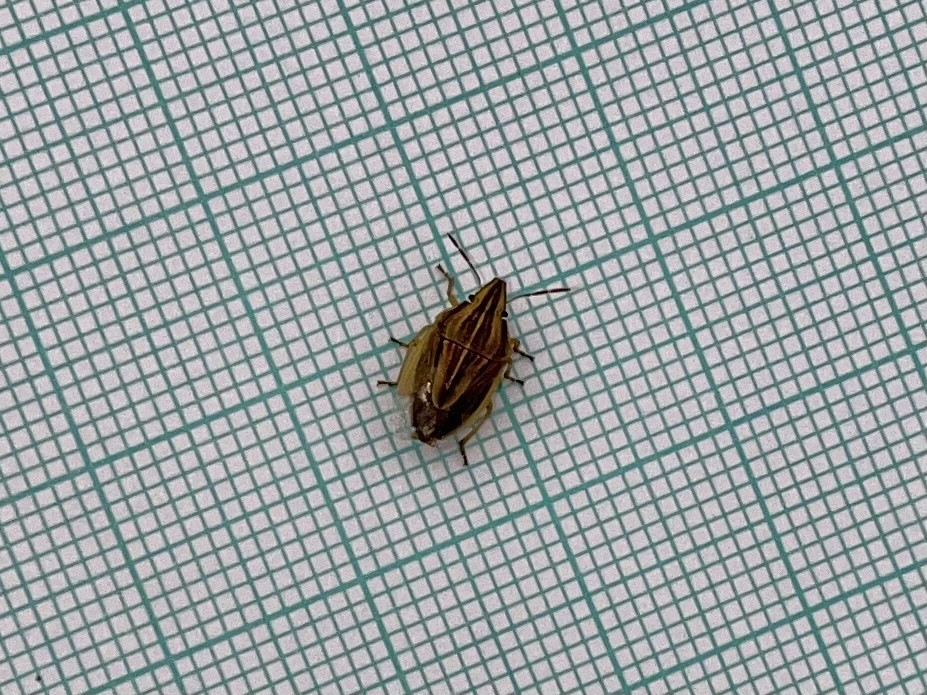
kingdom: Animalia
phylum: Arthropoda
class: Insecta
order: Hemiptera
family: Pentatomidae
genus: Aelia
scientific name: Aelia acuminata
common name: Bishop's mitre
